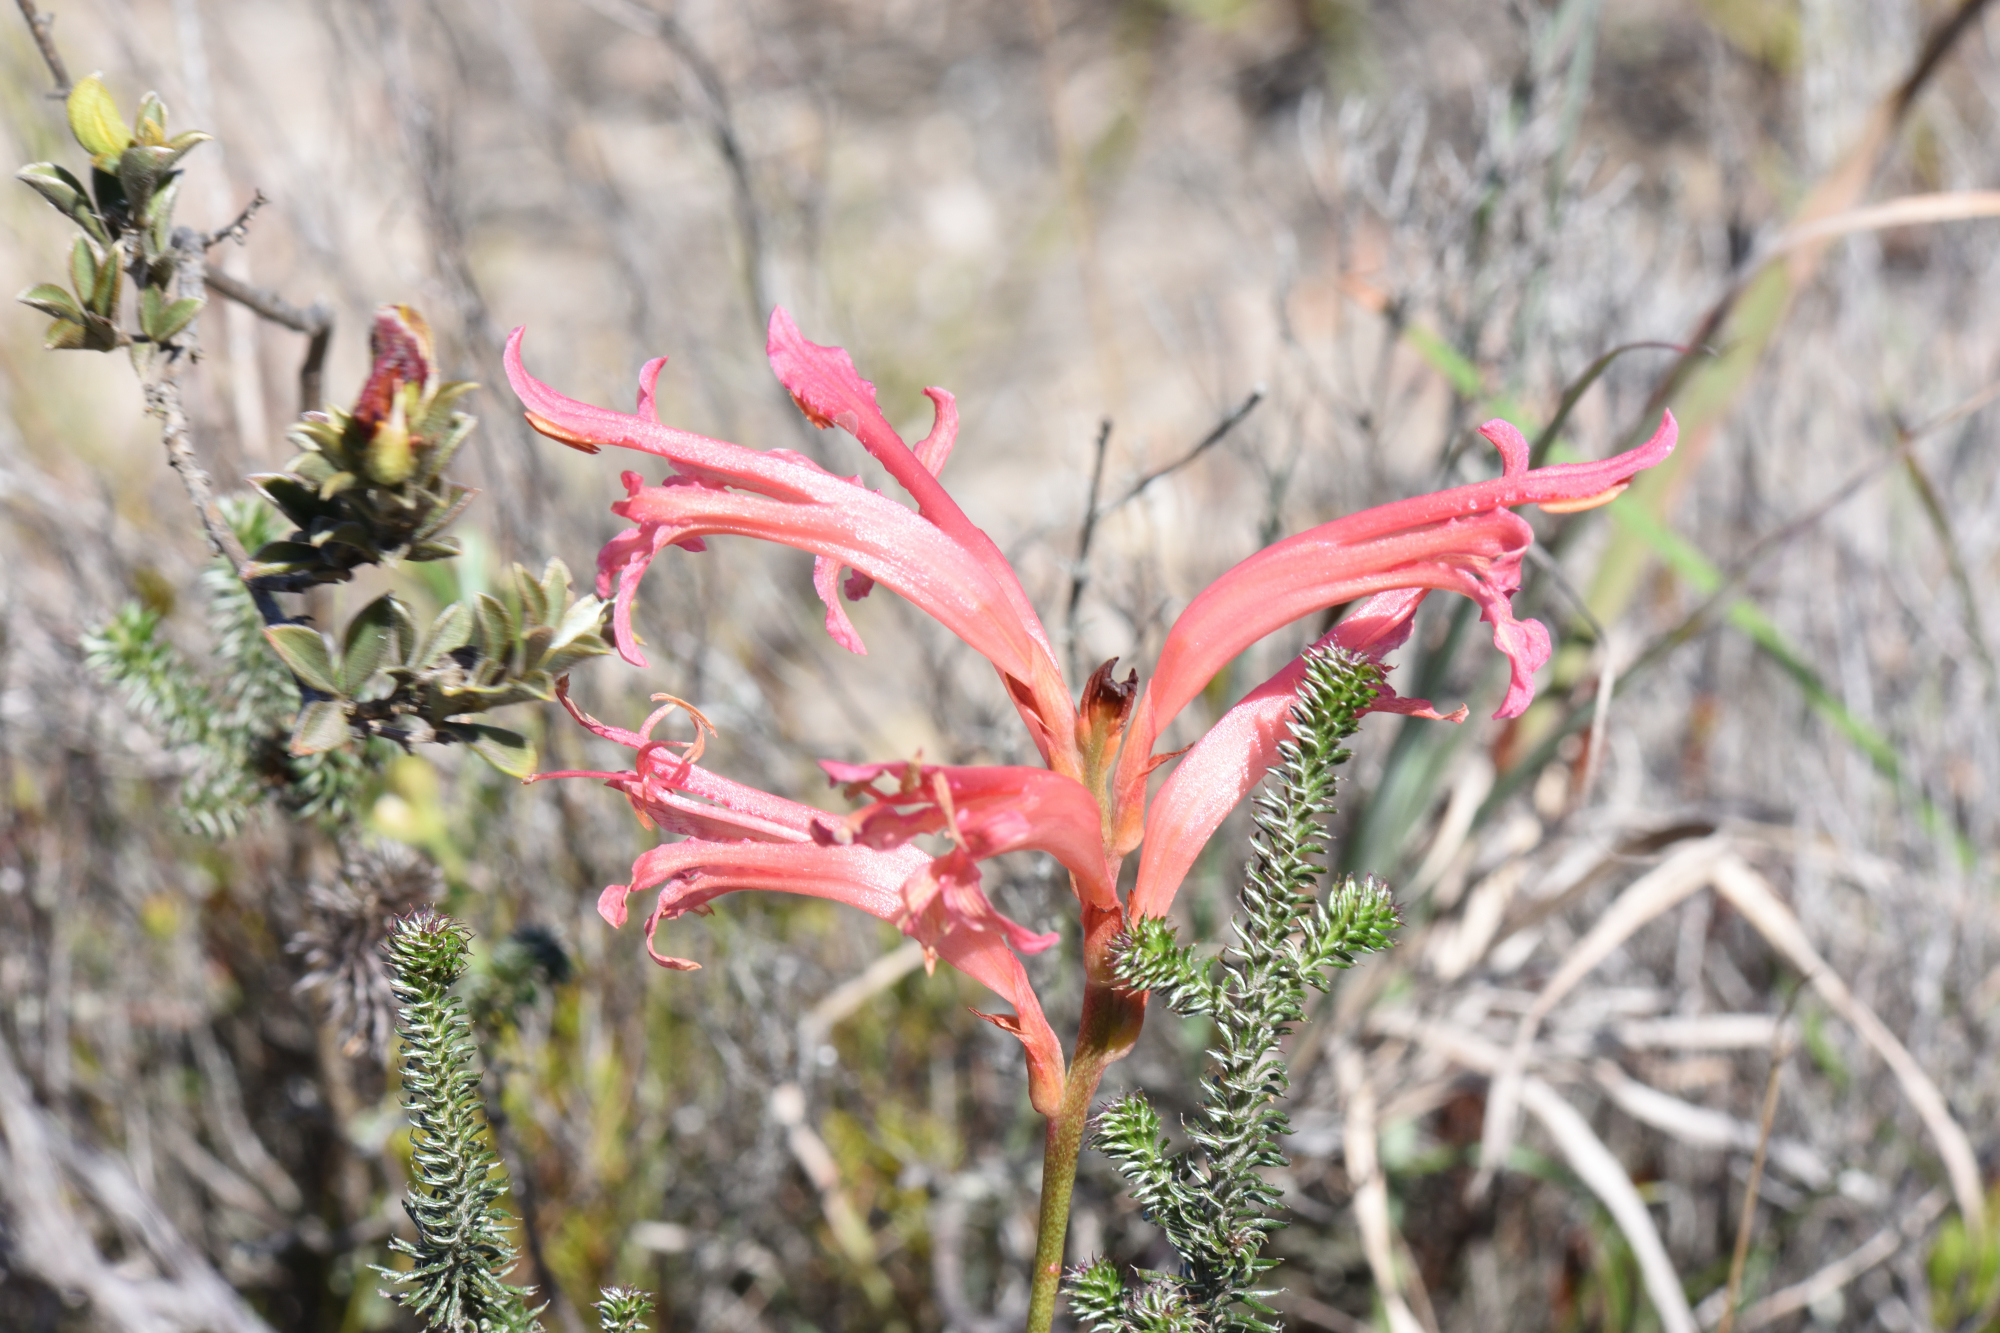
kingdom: Plantae
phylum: Tracheophyta
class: Liliopsida
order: Asparagales
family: Iridaceae
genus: Tritoniopsis
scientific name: Tritoniopsis antholyza
